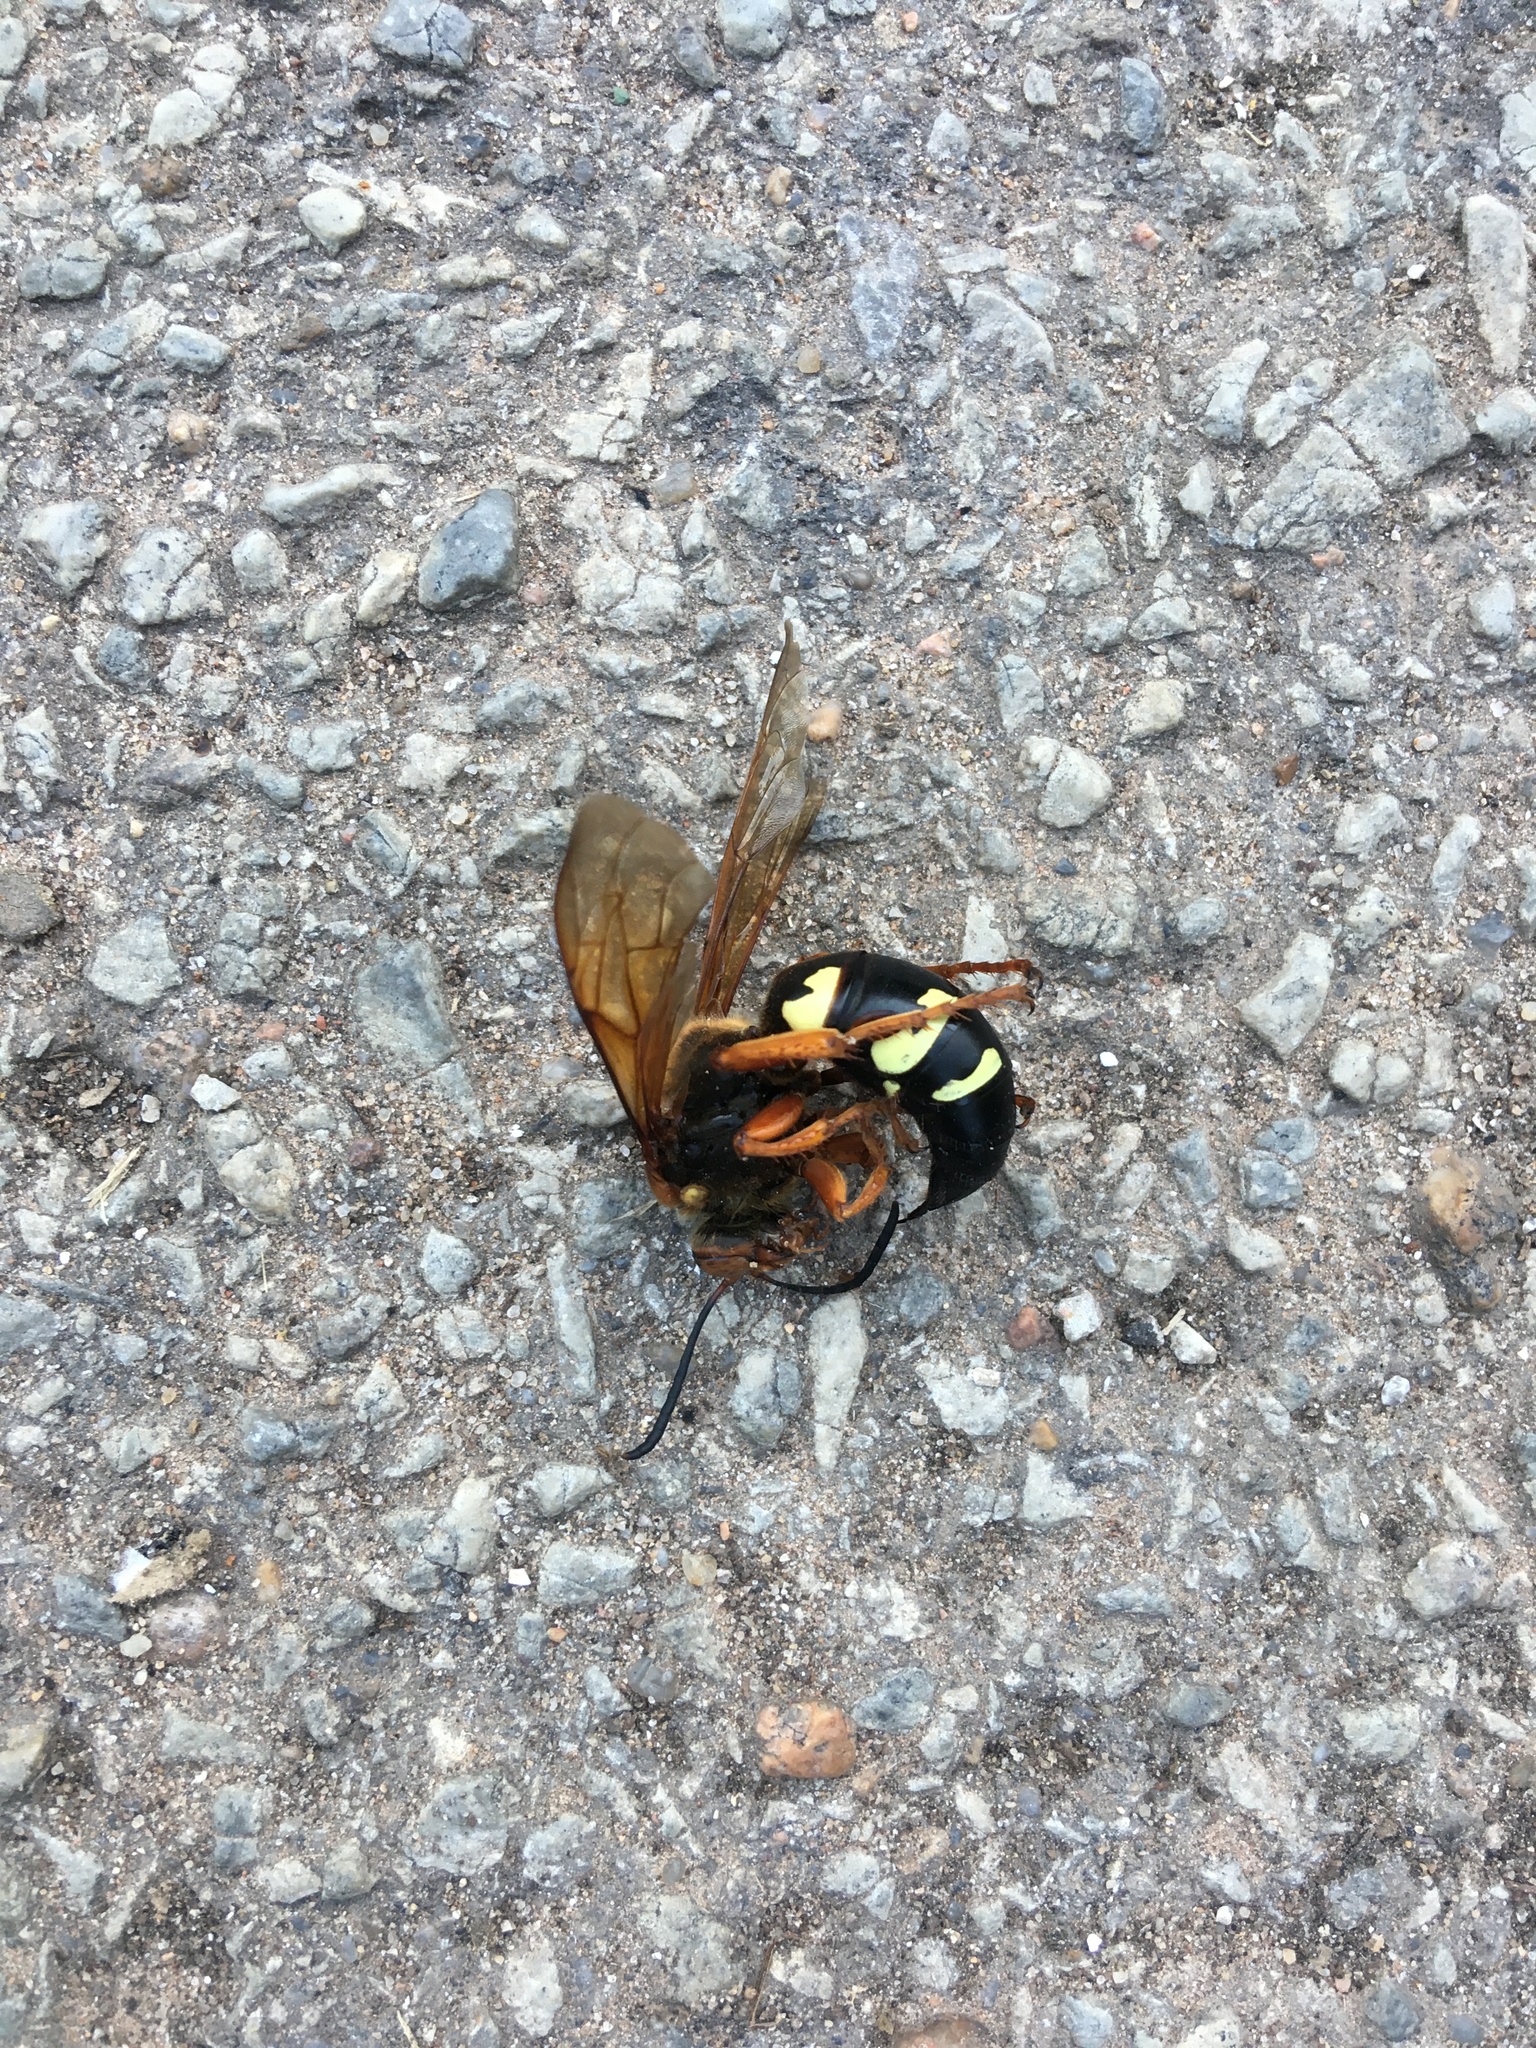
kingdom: Animalia
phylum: Arthropoda
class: Insecta
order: Hymenoptera
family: Crabronidae
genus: Sphecius
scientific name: Sphecius speciosus
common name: Cicada killer
